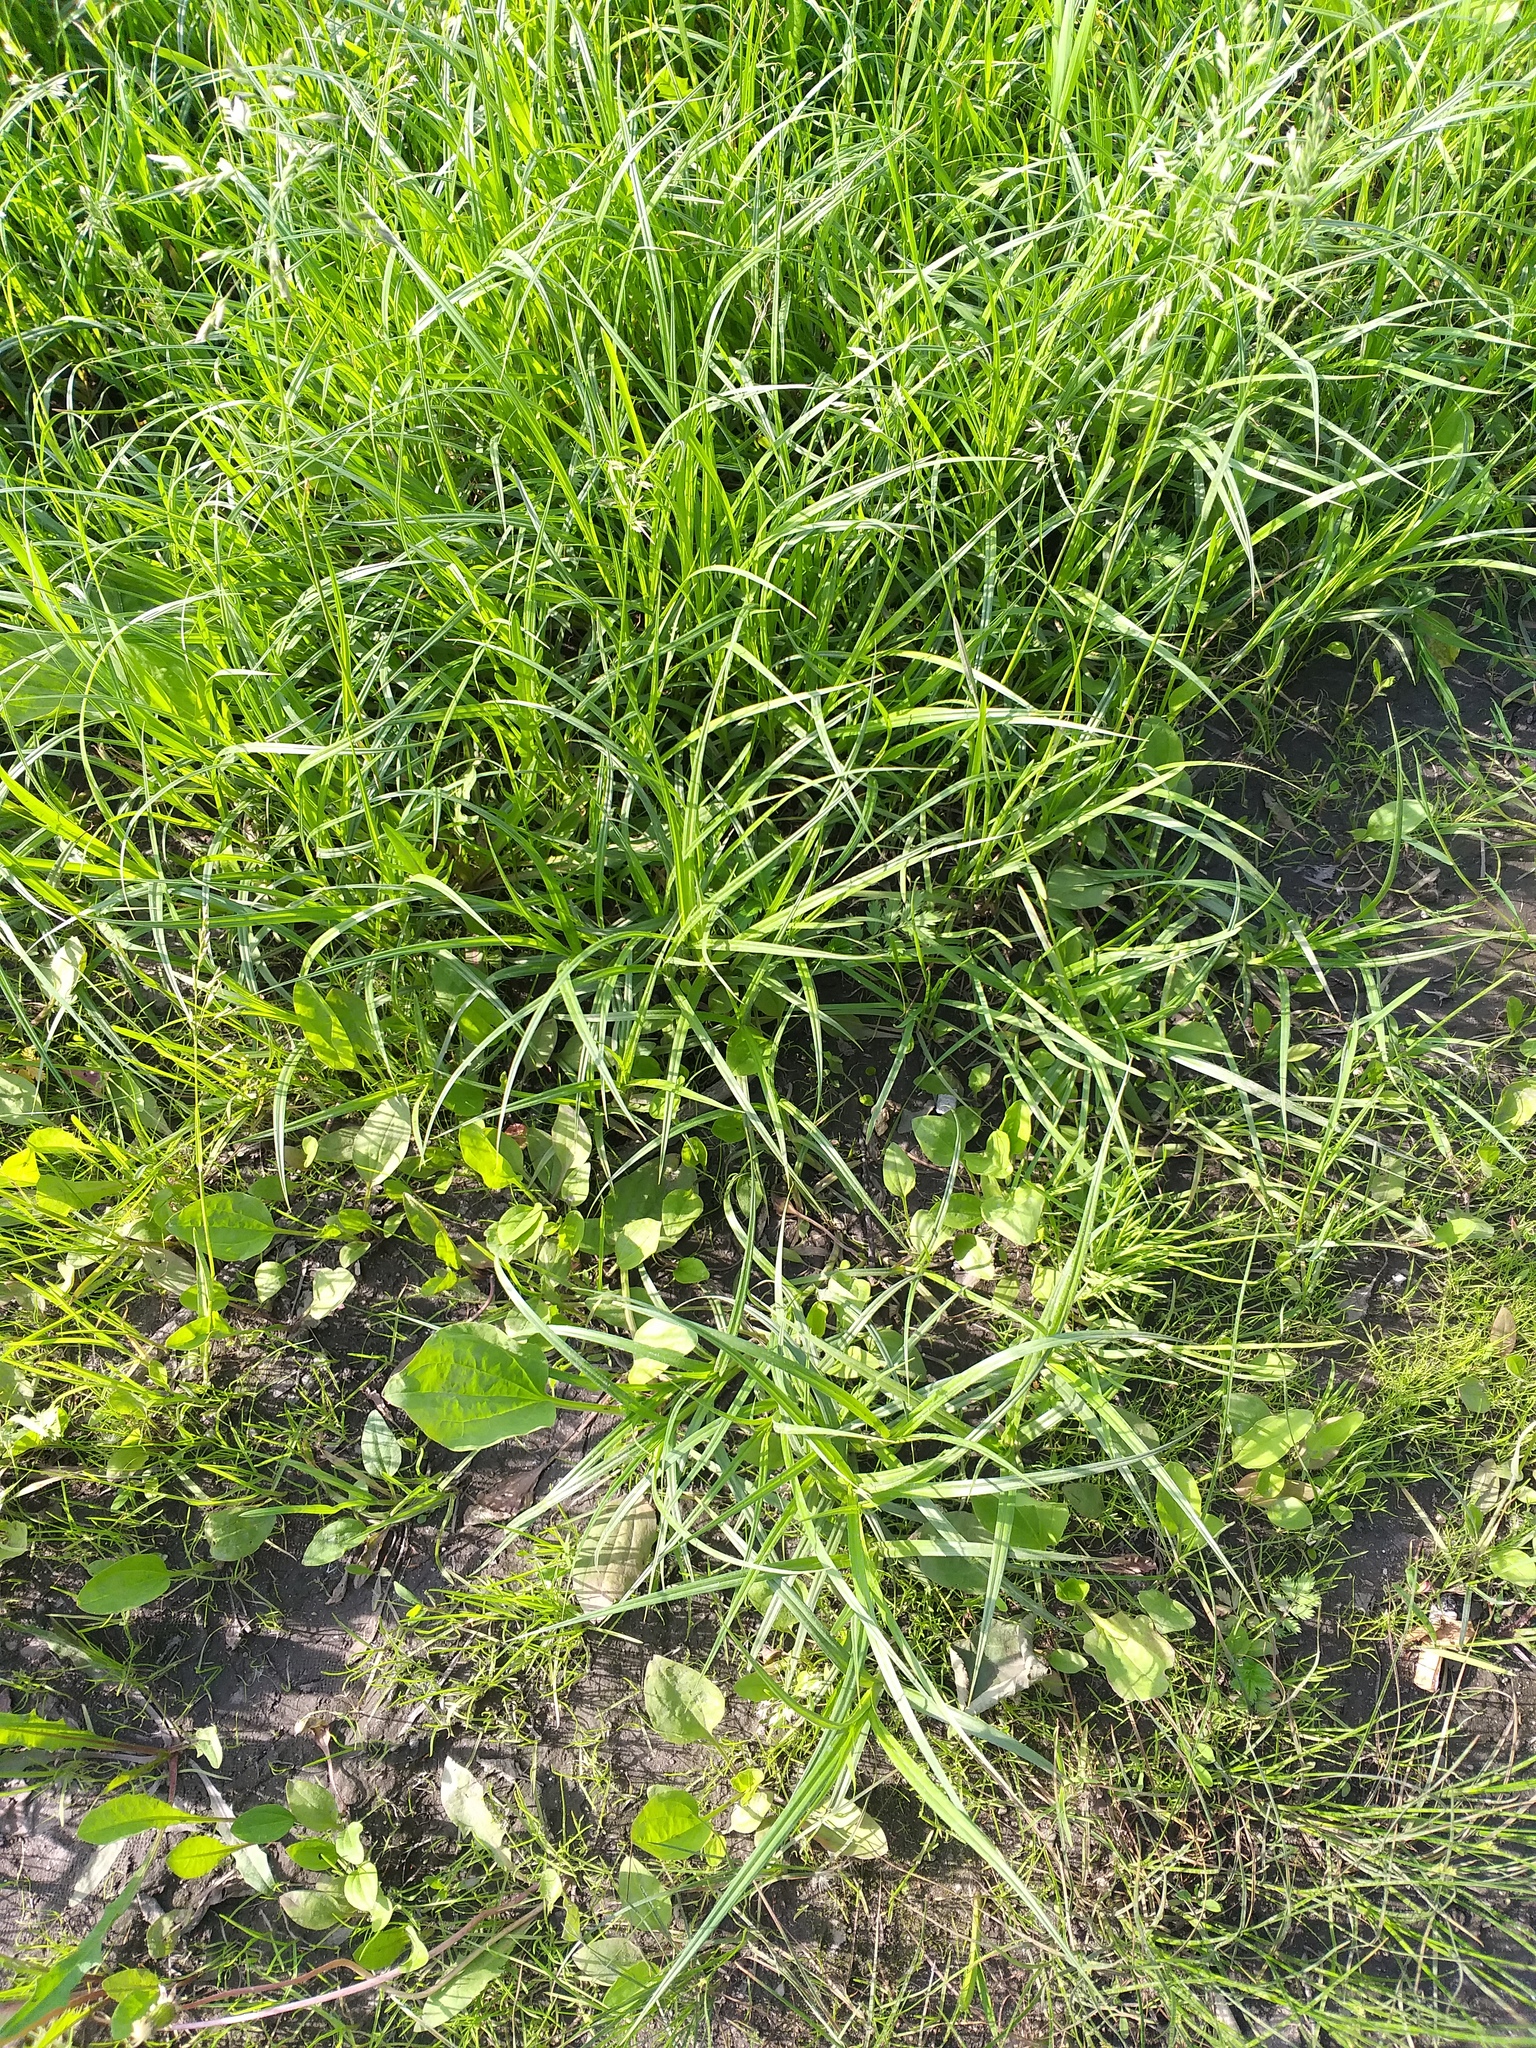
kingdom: Plantae
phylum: Tracheophyta
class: Liliopsida
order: Poales
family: Cyperaceae
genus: Carex
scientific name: Carex hirta
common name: Hairy sedge
